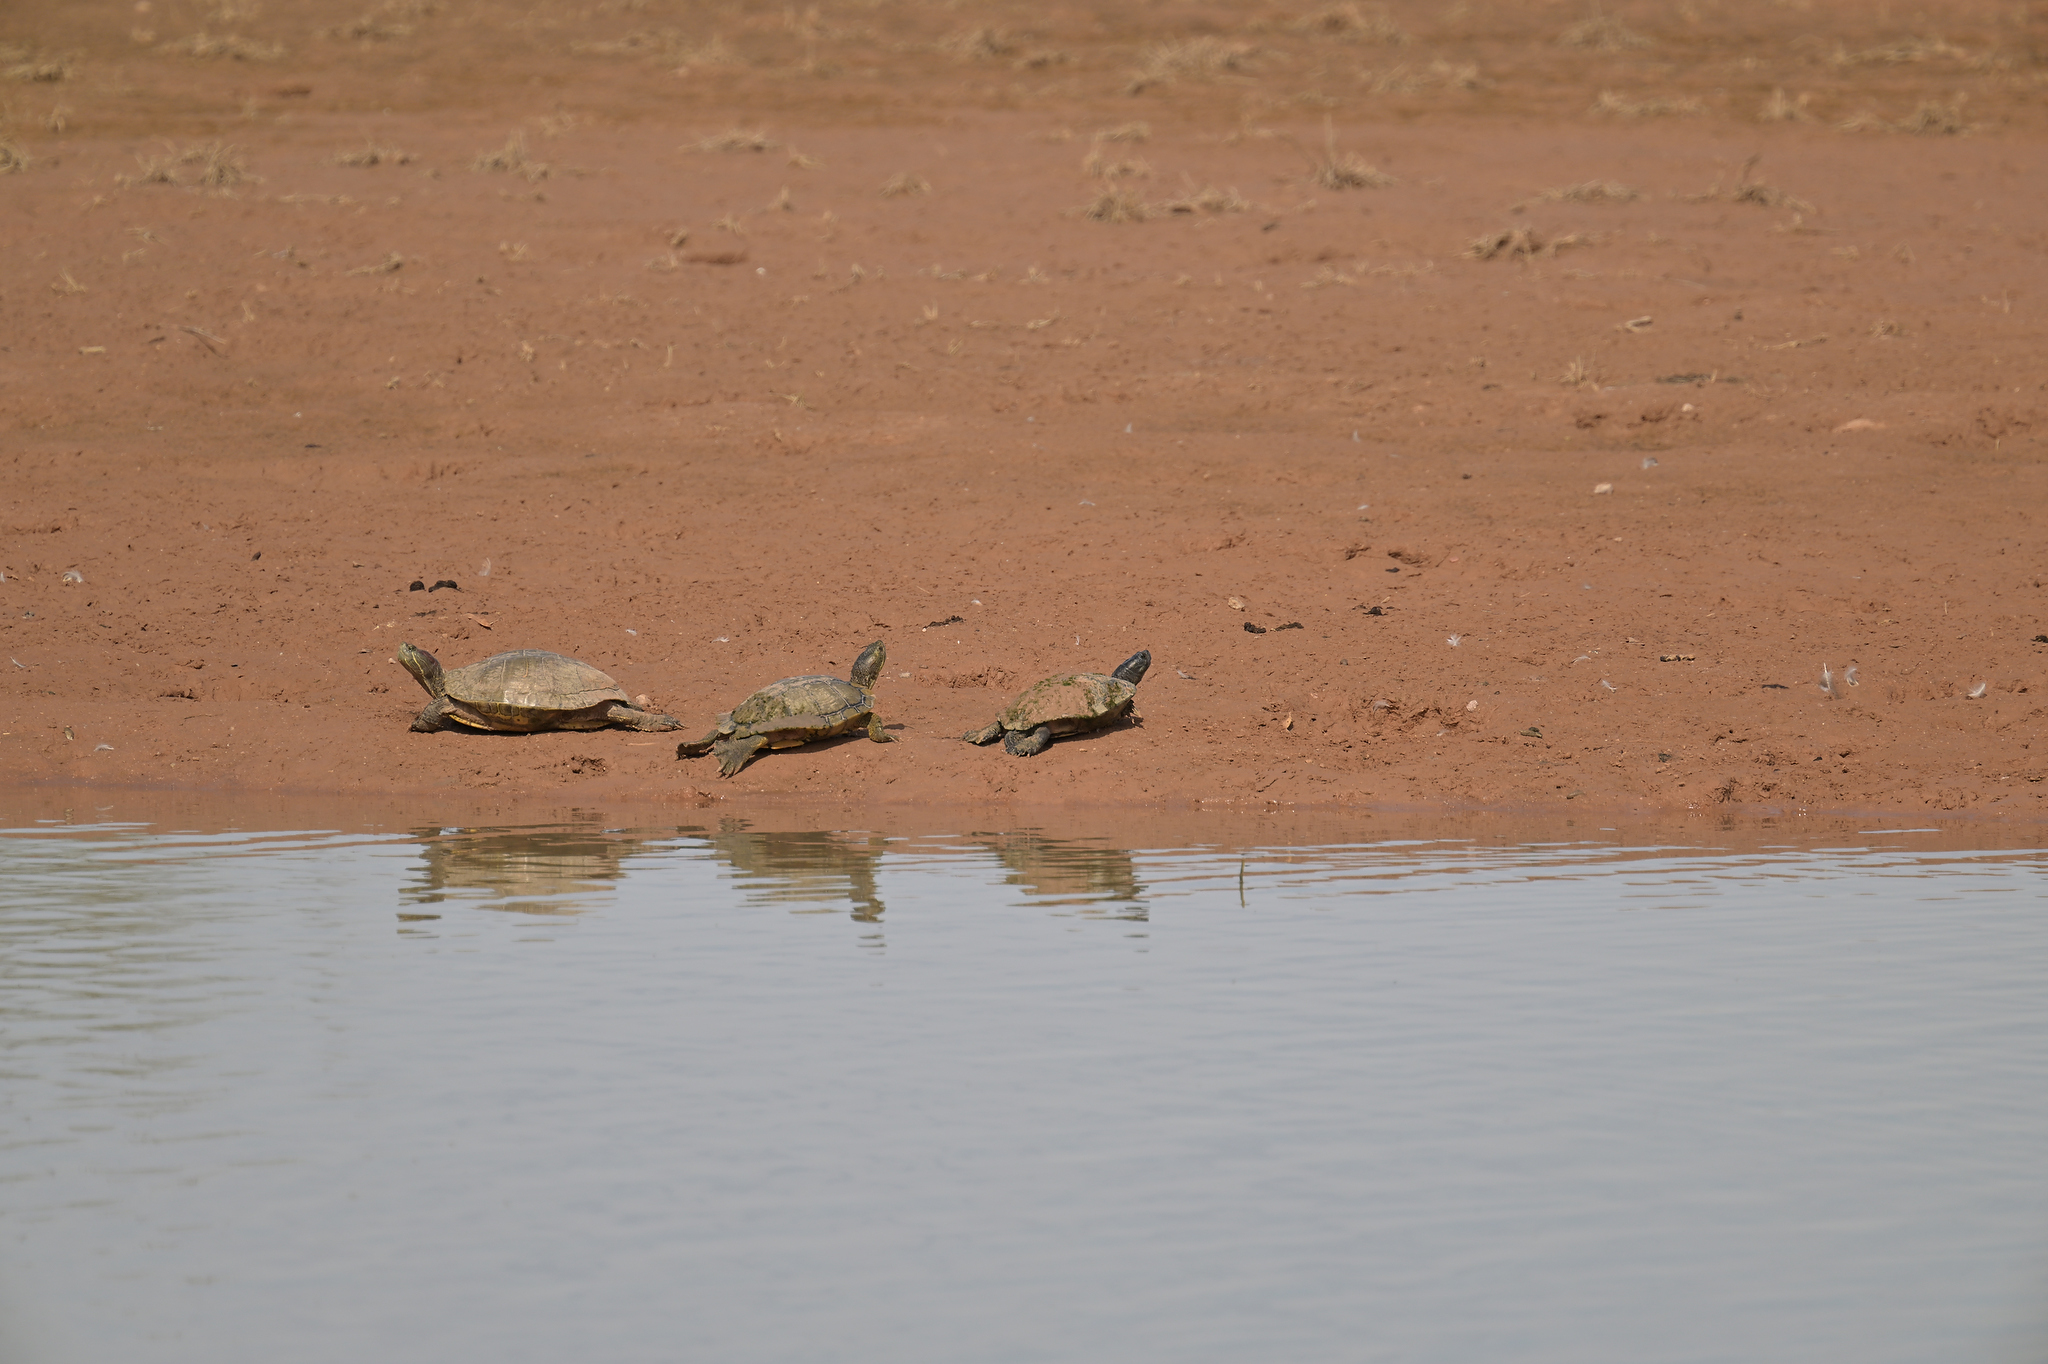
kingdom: Animalia
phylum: Chordata
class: Testudines
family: Emydidae
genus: Trachemys
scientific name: Trachemys scripta
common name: Slider
